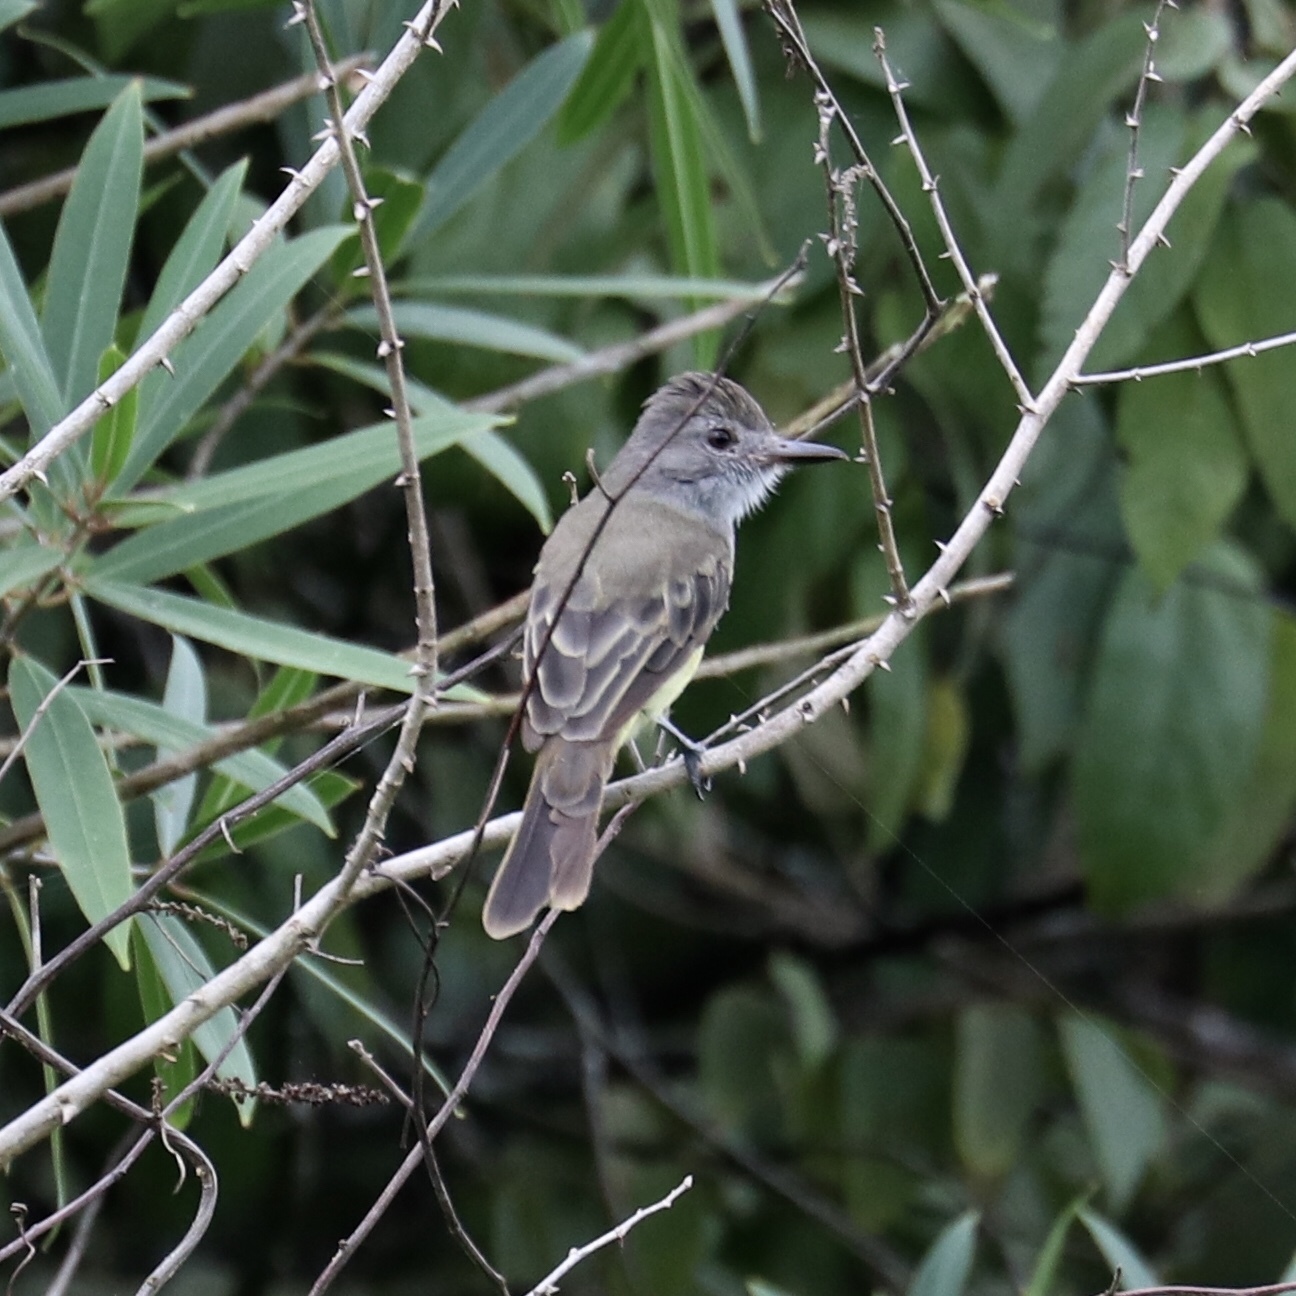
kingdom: Animalia
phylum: Chordata
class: Aves
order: Passeriformes
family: Tyrannidae
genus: Myiarchus
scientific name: Myiarchus panamensis
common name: Panama flycatcher
